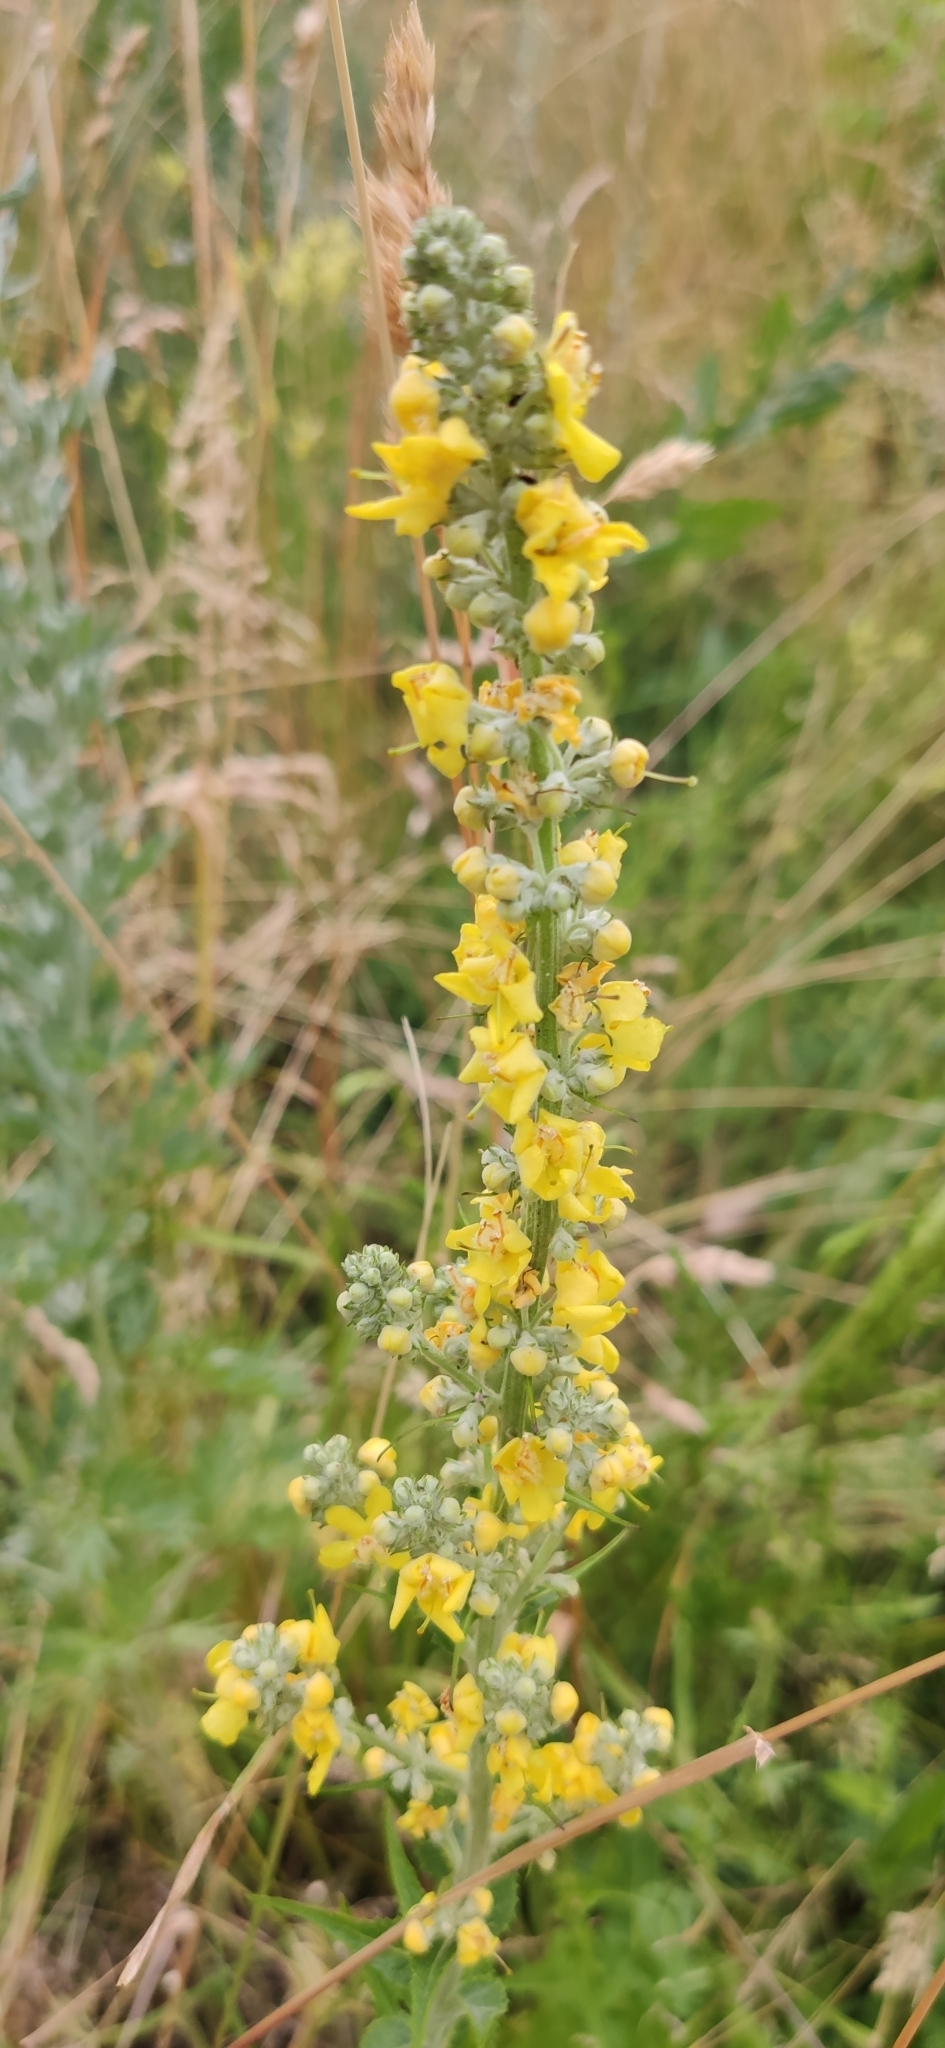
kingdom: Plantae
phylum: Tracheophyta
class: Magnoliopsida
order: Lamiales
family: Scrophulariaceae
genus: Verbascum
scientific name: Verbascum lychnitis
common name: White mullein
